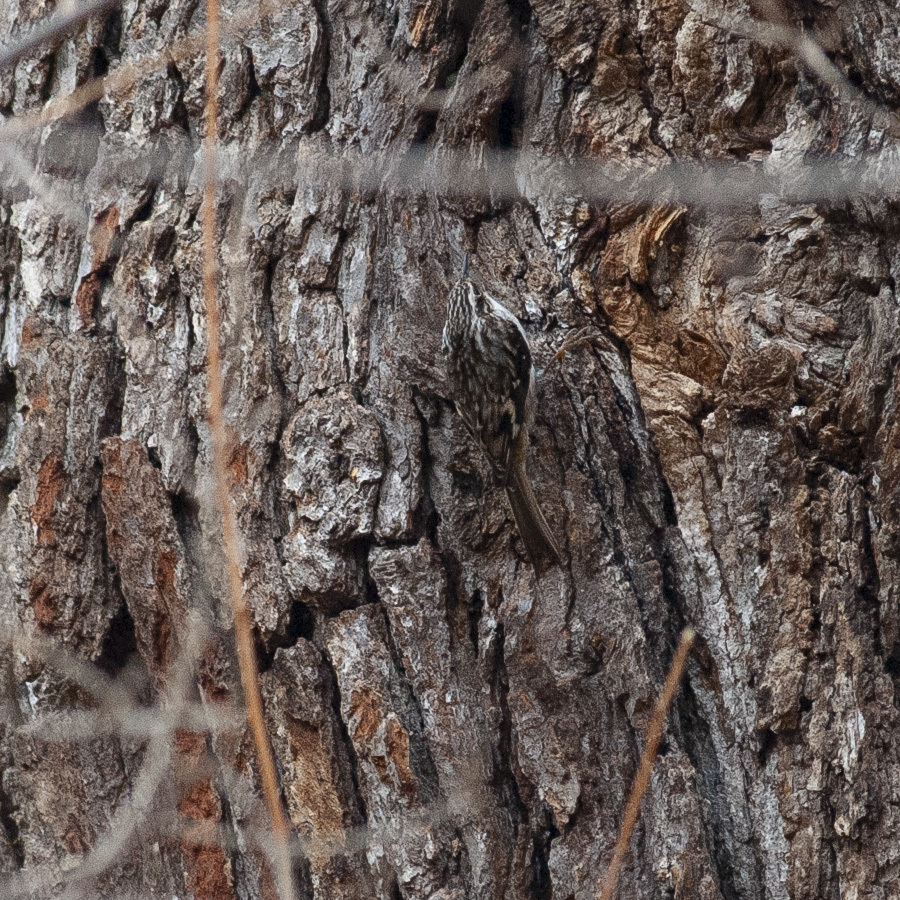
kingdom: Animalia
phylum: Chordata
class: Aves
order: Passeriformes
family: Certhiidae
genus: Certhia
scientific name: Certhia americana
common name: Brown creeper
